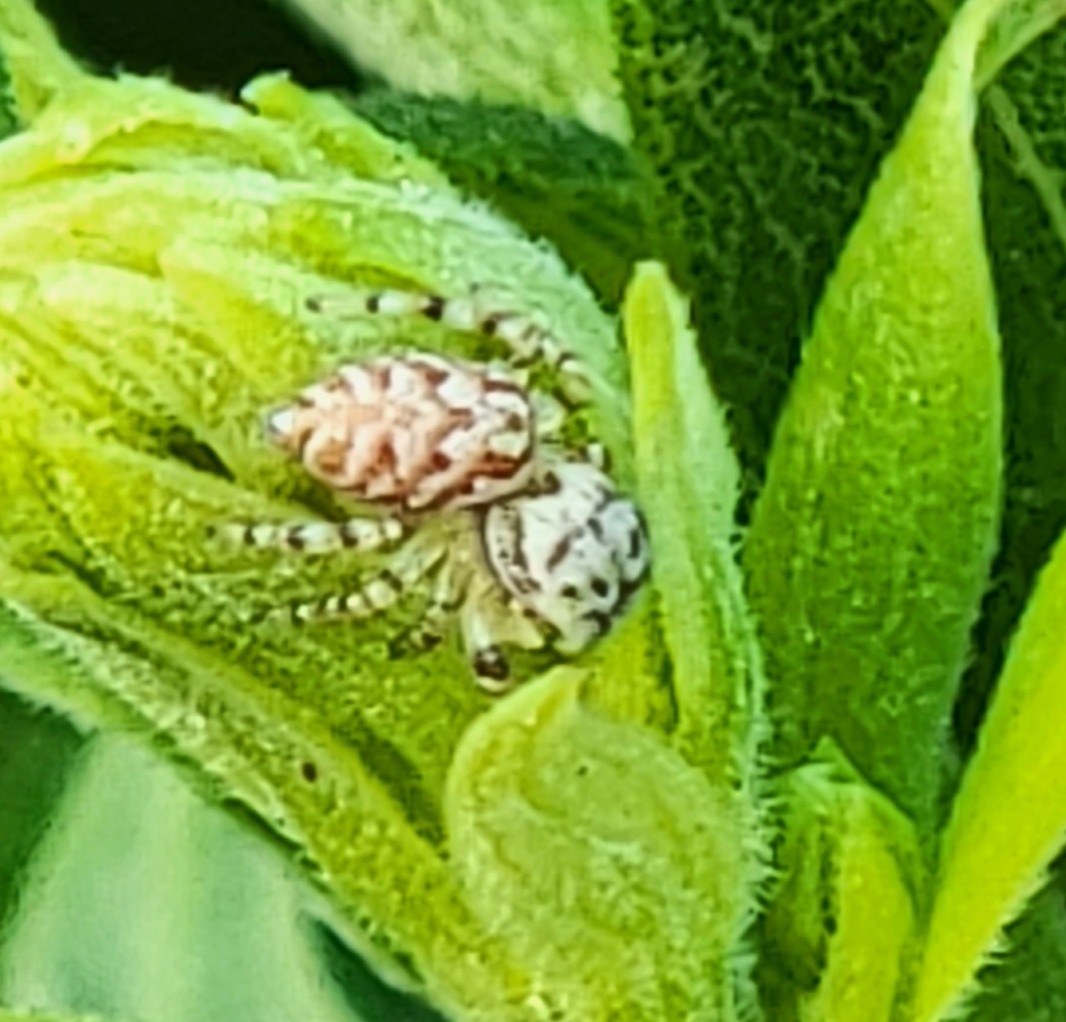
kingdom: Animalia
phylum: Arthropoda
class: Arachnida
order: Araneae
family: Salticidae
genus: Pelegrina
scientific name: Pelegrina galathea
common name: Jumping spiders
